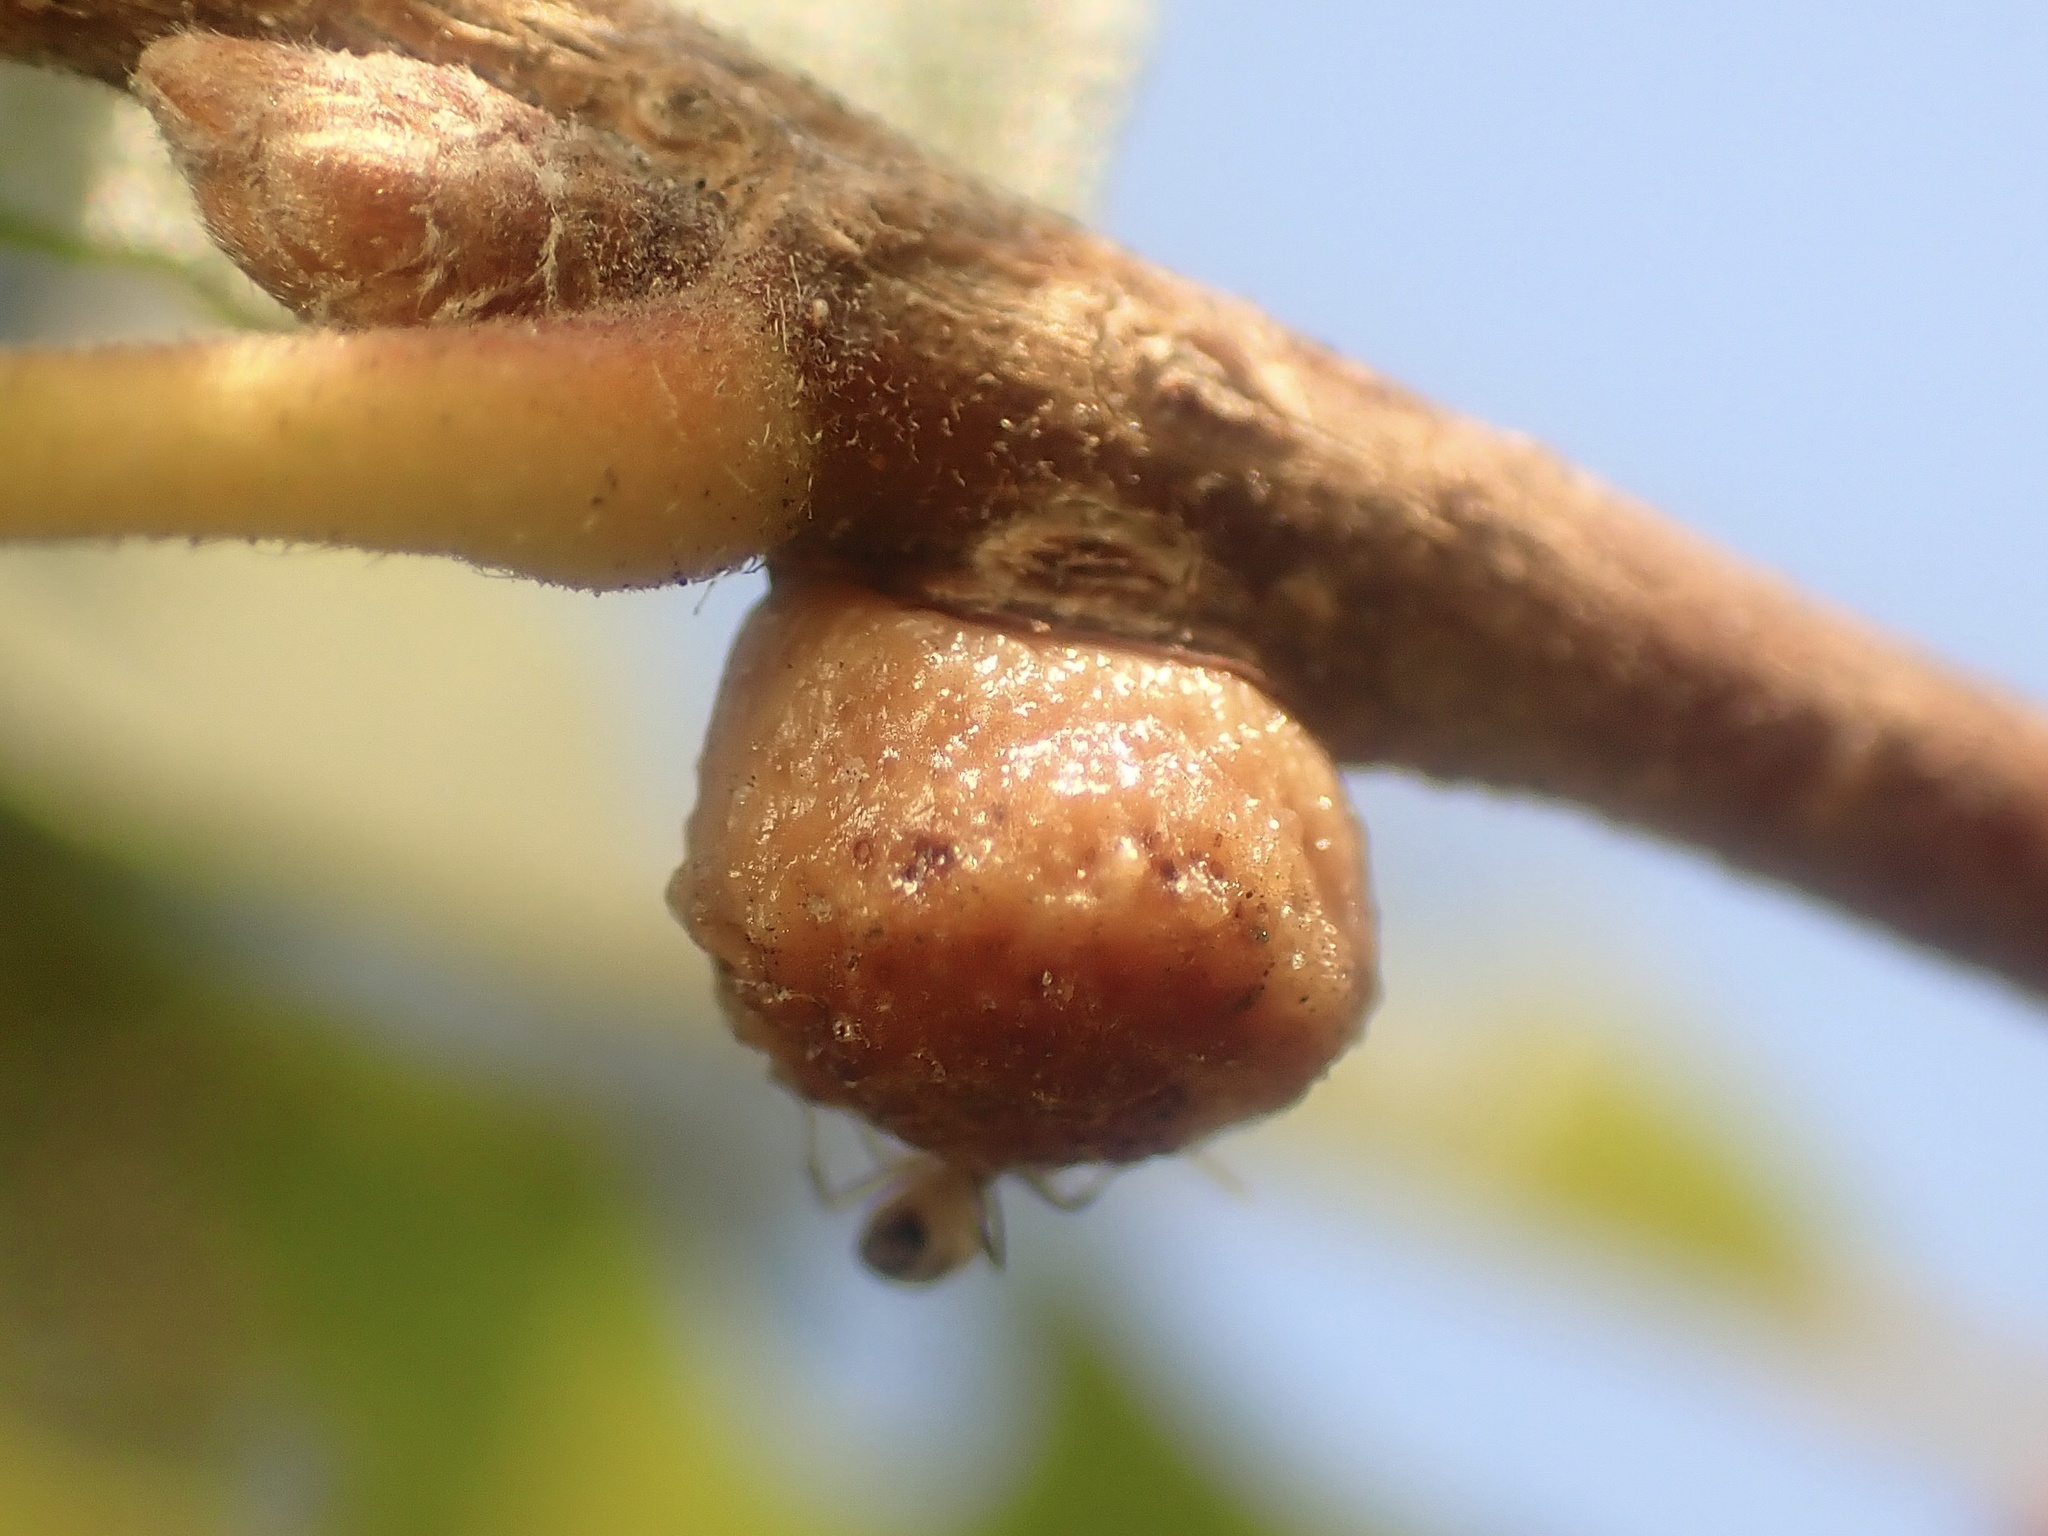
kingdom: Animalia
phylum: Arthropoda
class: Insecta
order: Hymenoptera
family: Cynipidae
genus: Disholcaspis
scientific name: Disholcaspis
